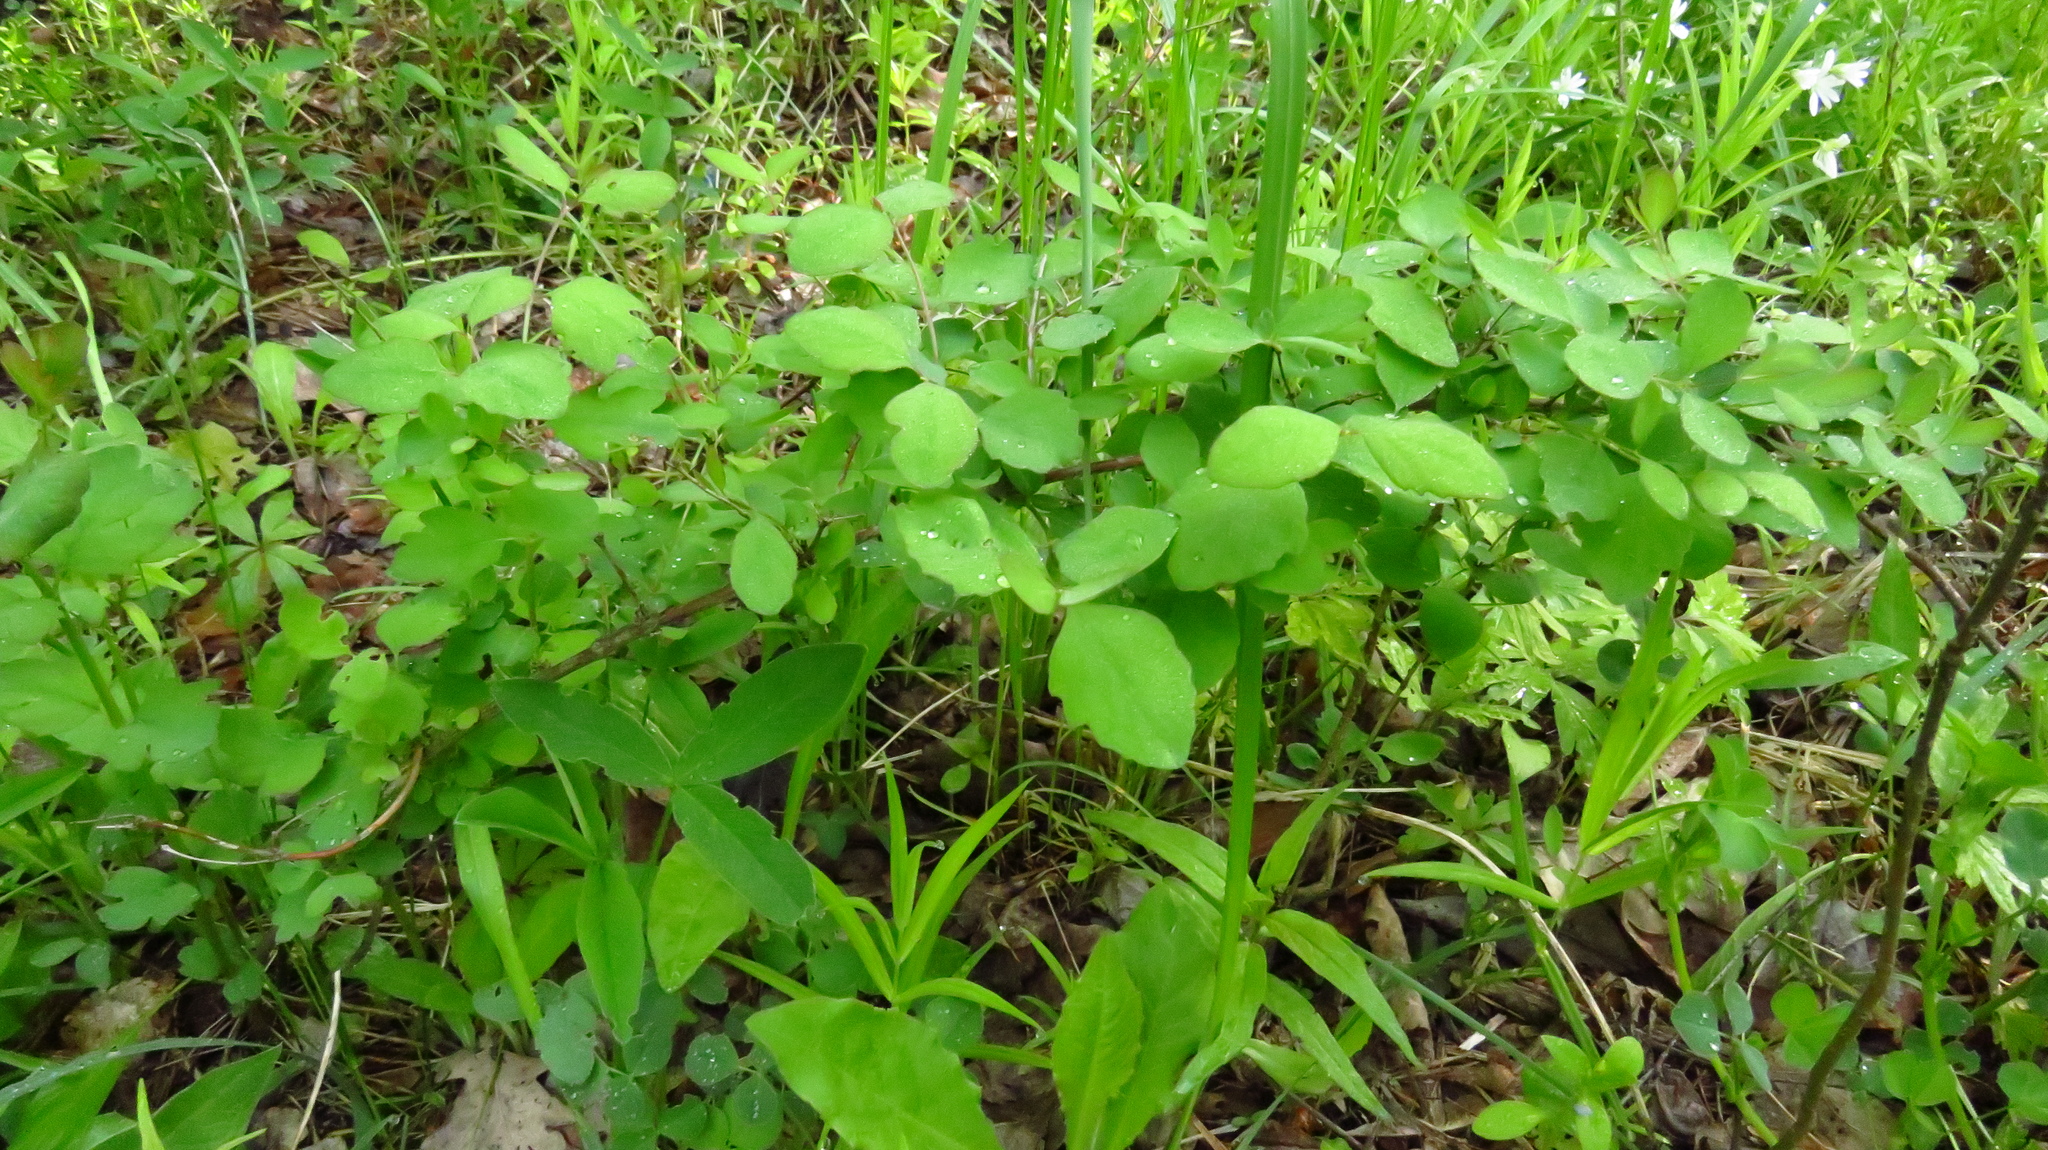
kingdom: Plantae
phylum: Tracheophyta
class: Magnoliopsida
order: Dipsacales
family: Caprifoliaceae
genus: Symphoricarpos
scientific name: Symphoricarpos albus
